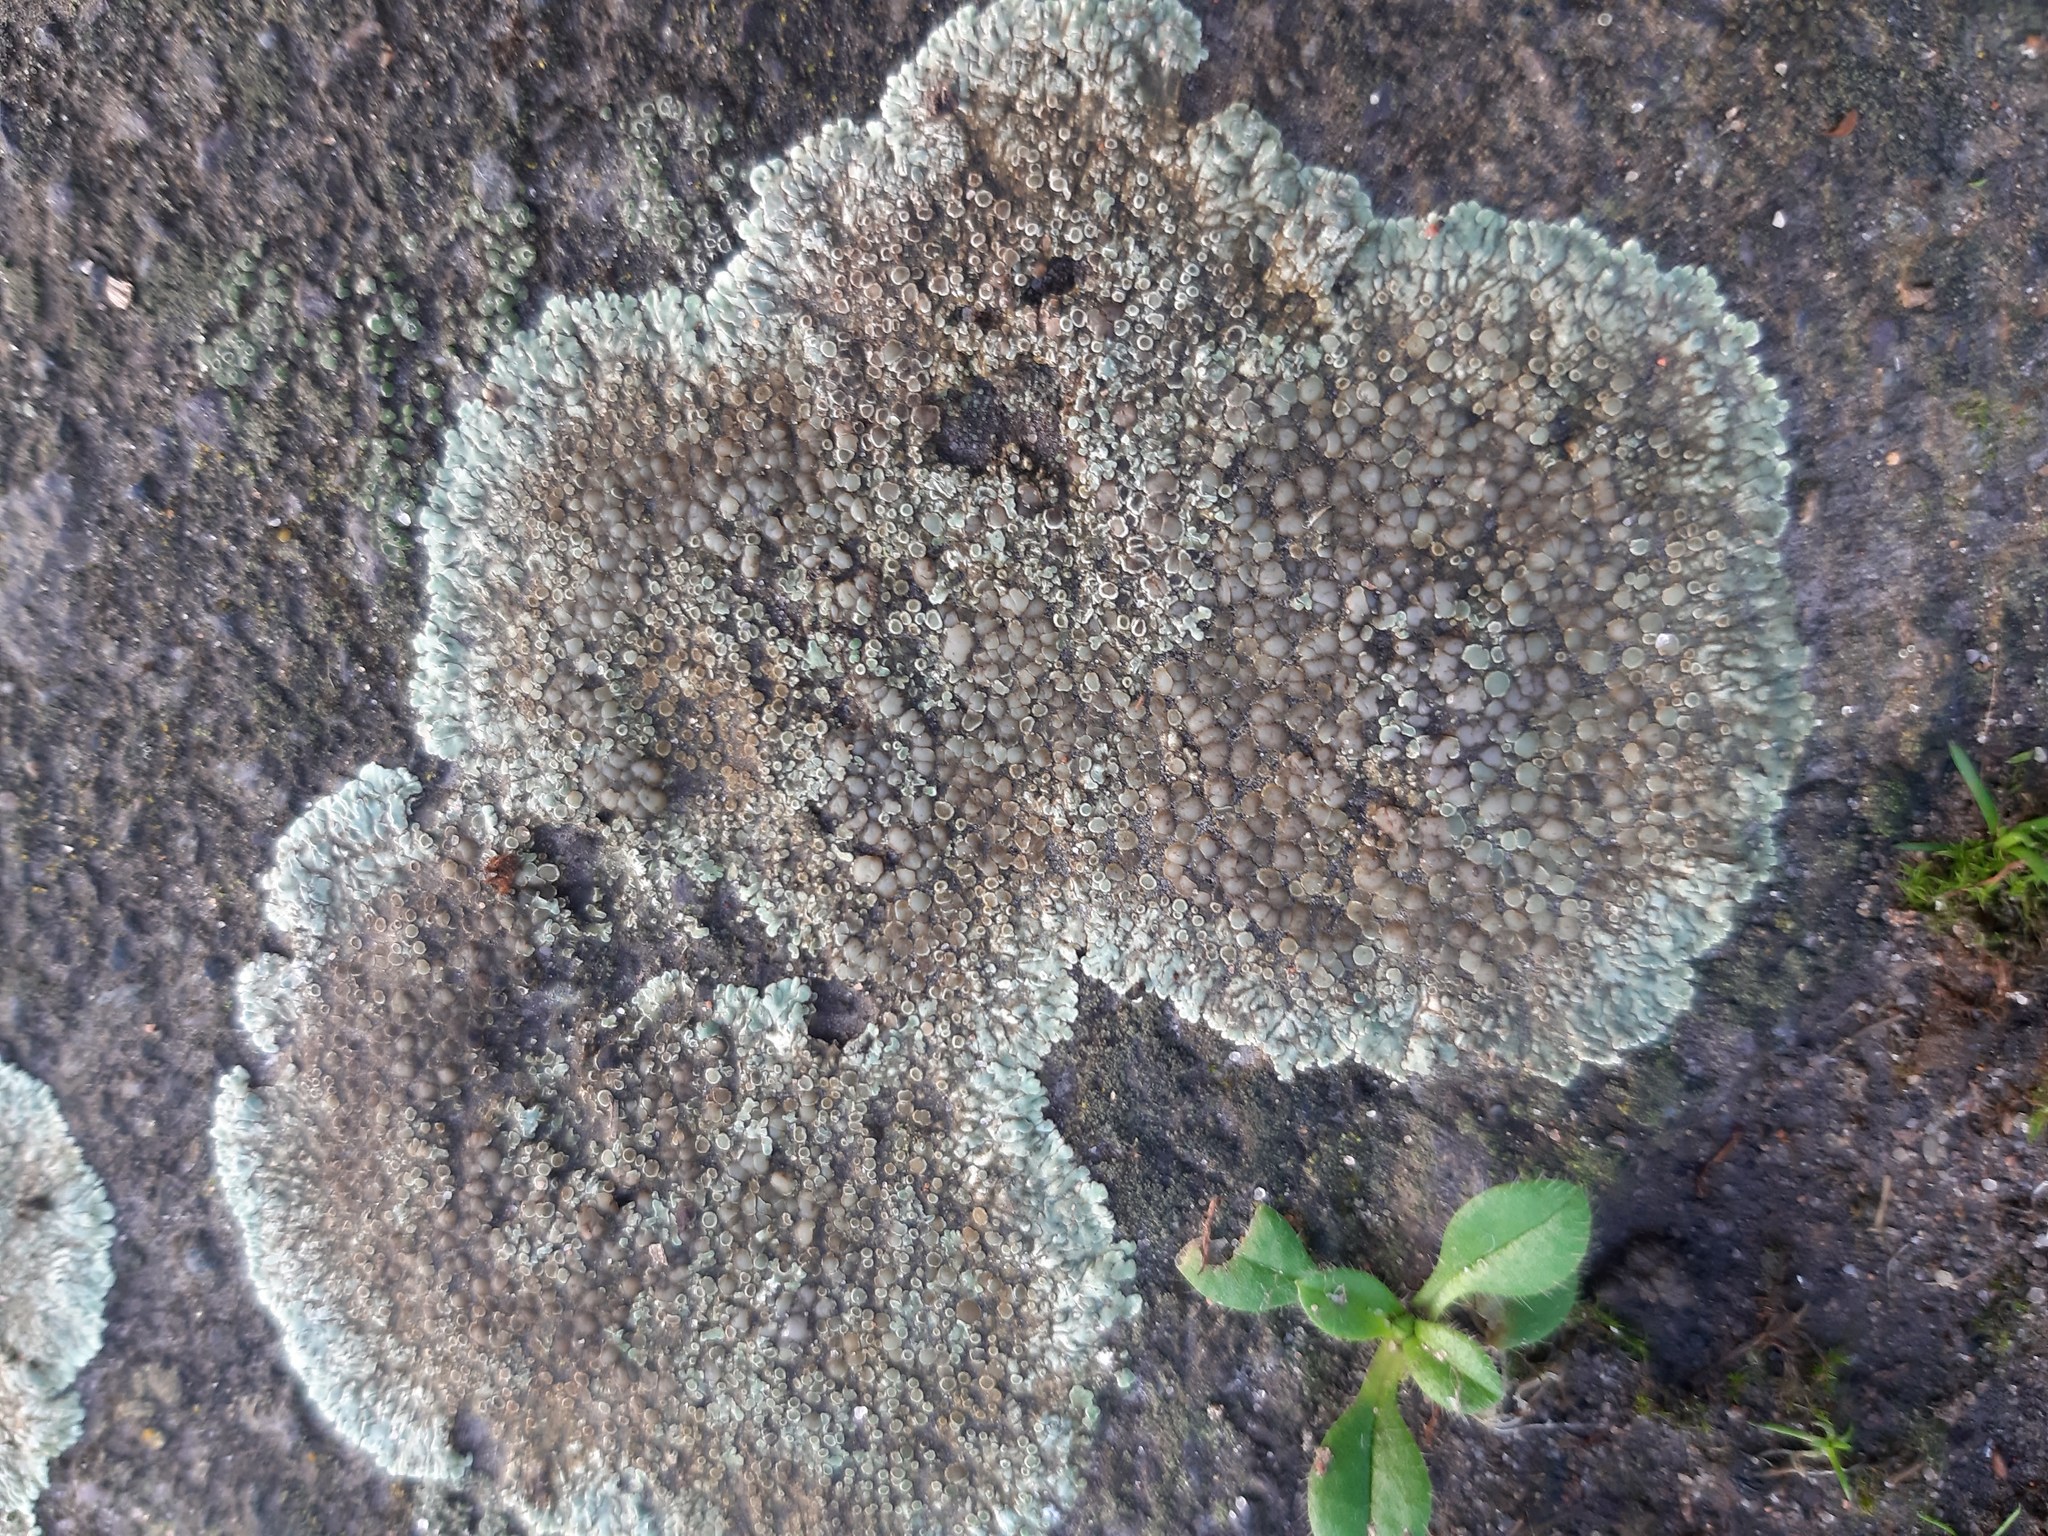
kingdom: Fungi
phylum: Ascomycota
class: Lecanoromycetes
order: Lecanorales
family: Lecanoraceae
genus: Protoparmeliopsis
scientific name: Protoparmeliopsis muralis
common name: Stonewall rim lichen
